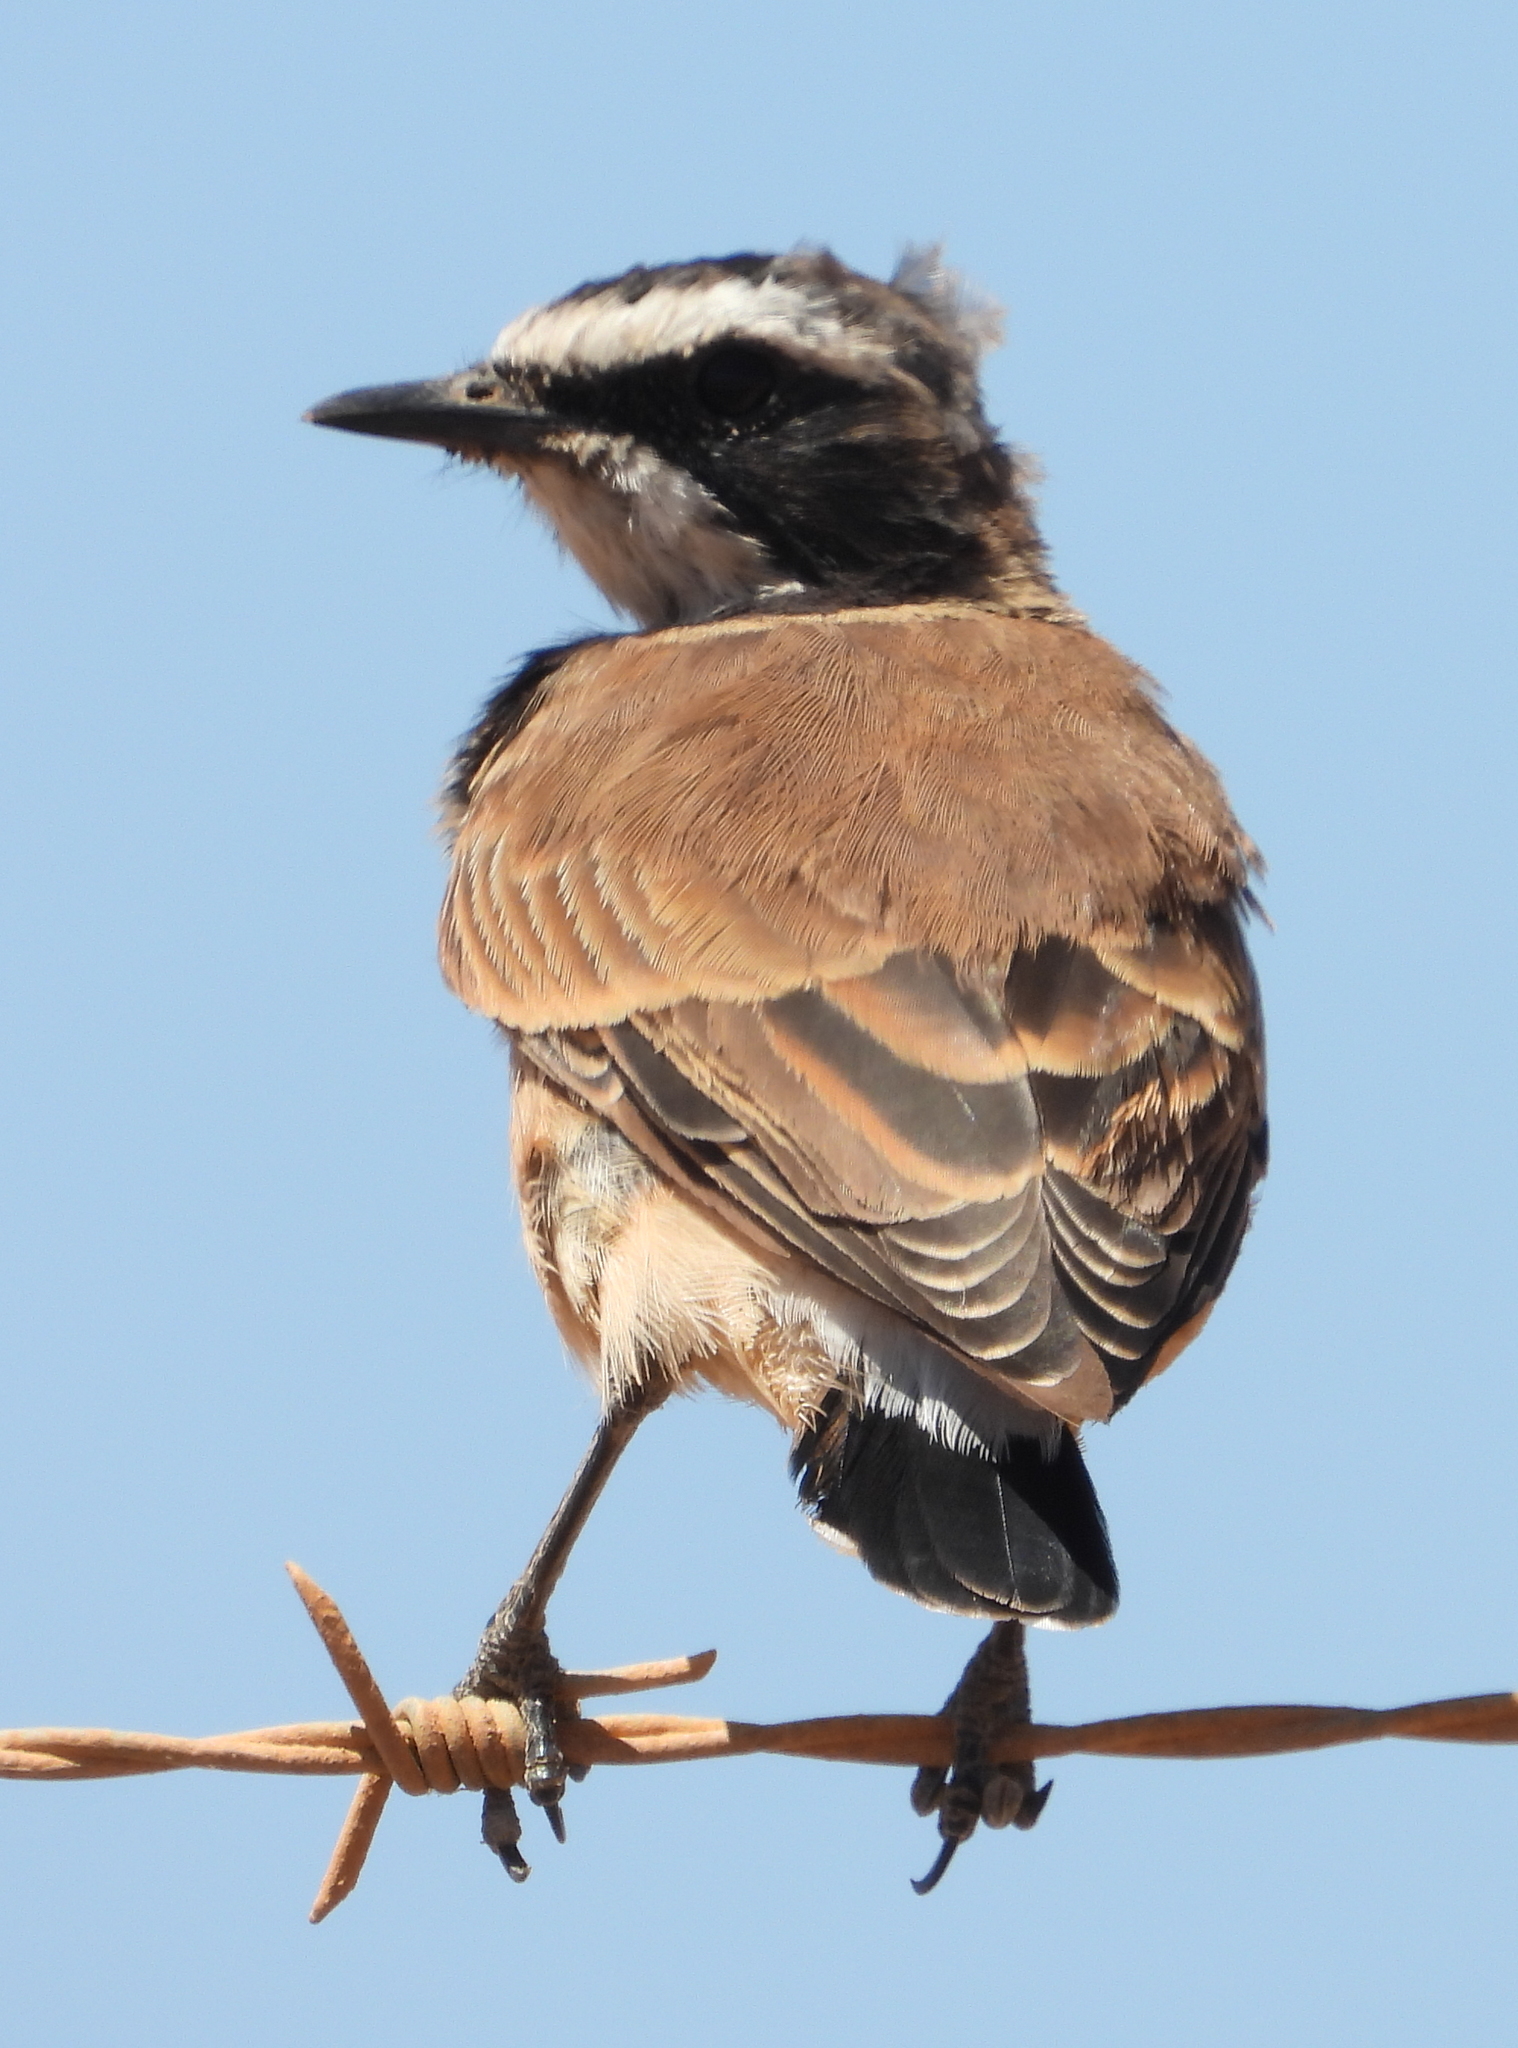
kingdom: Animalia
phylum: Chordata
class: Aves
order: Passeriformes
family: Muscicapidae
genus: Oenanthe
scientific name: Oenanthe pileata
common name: Capped wheatear
